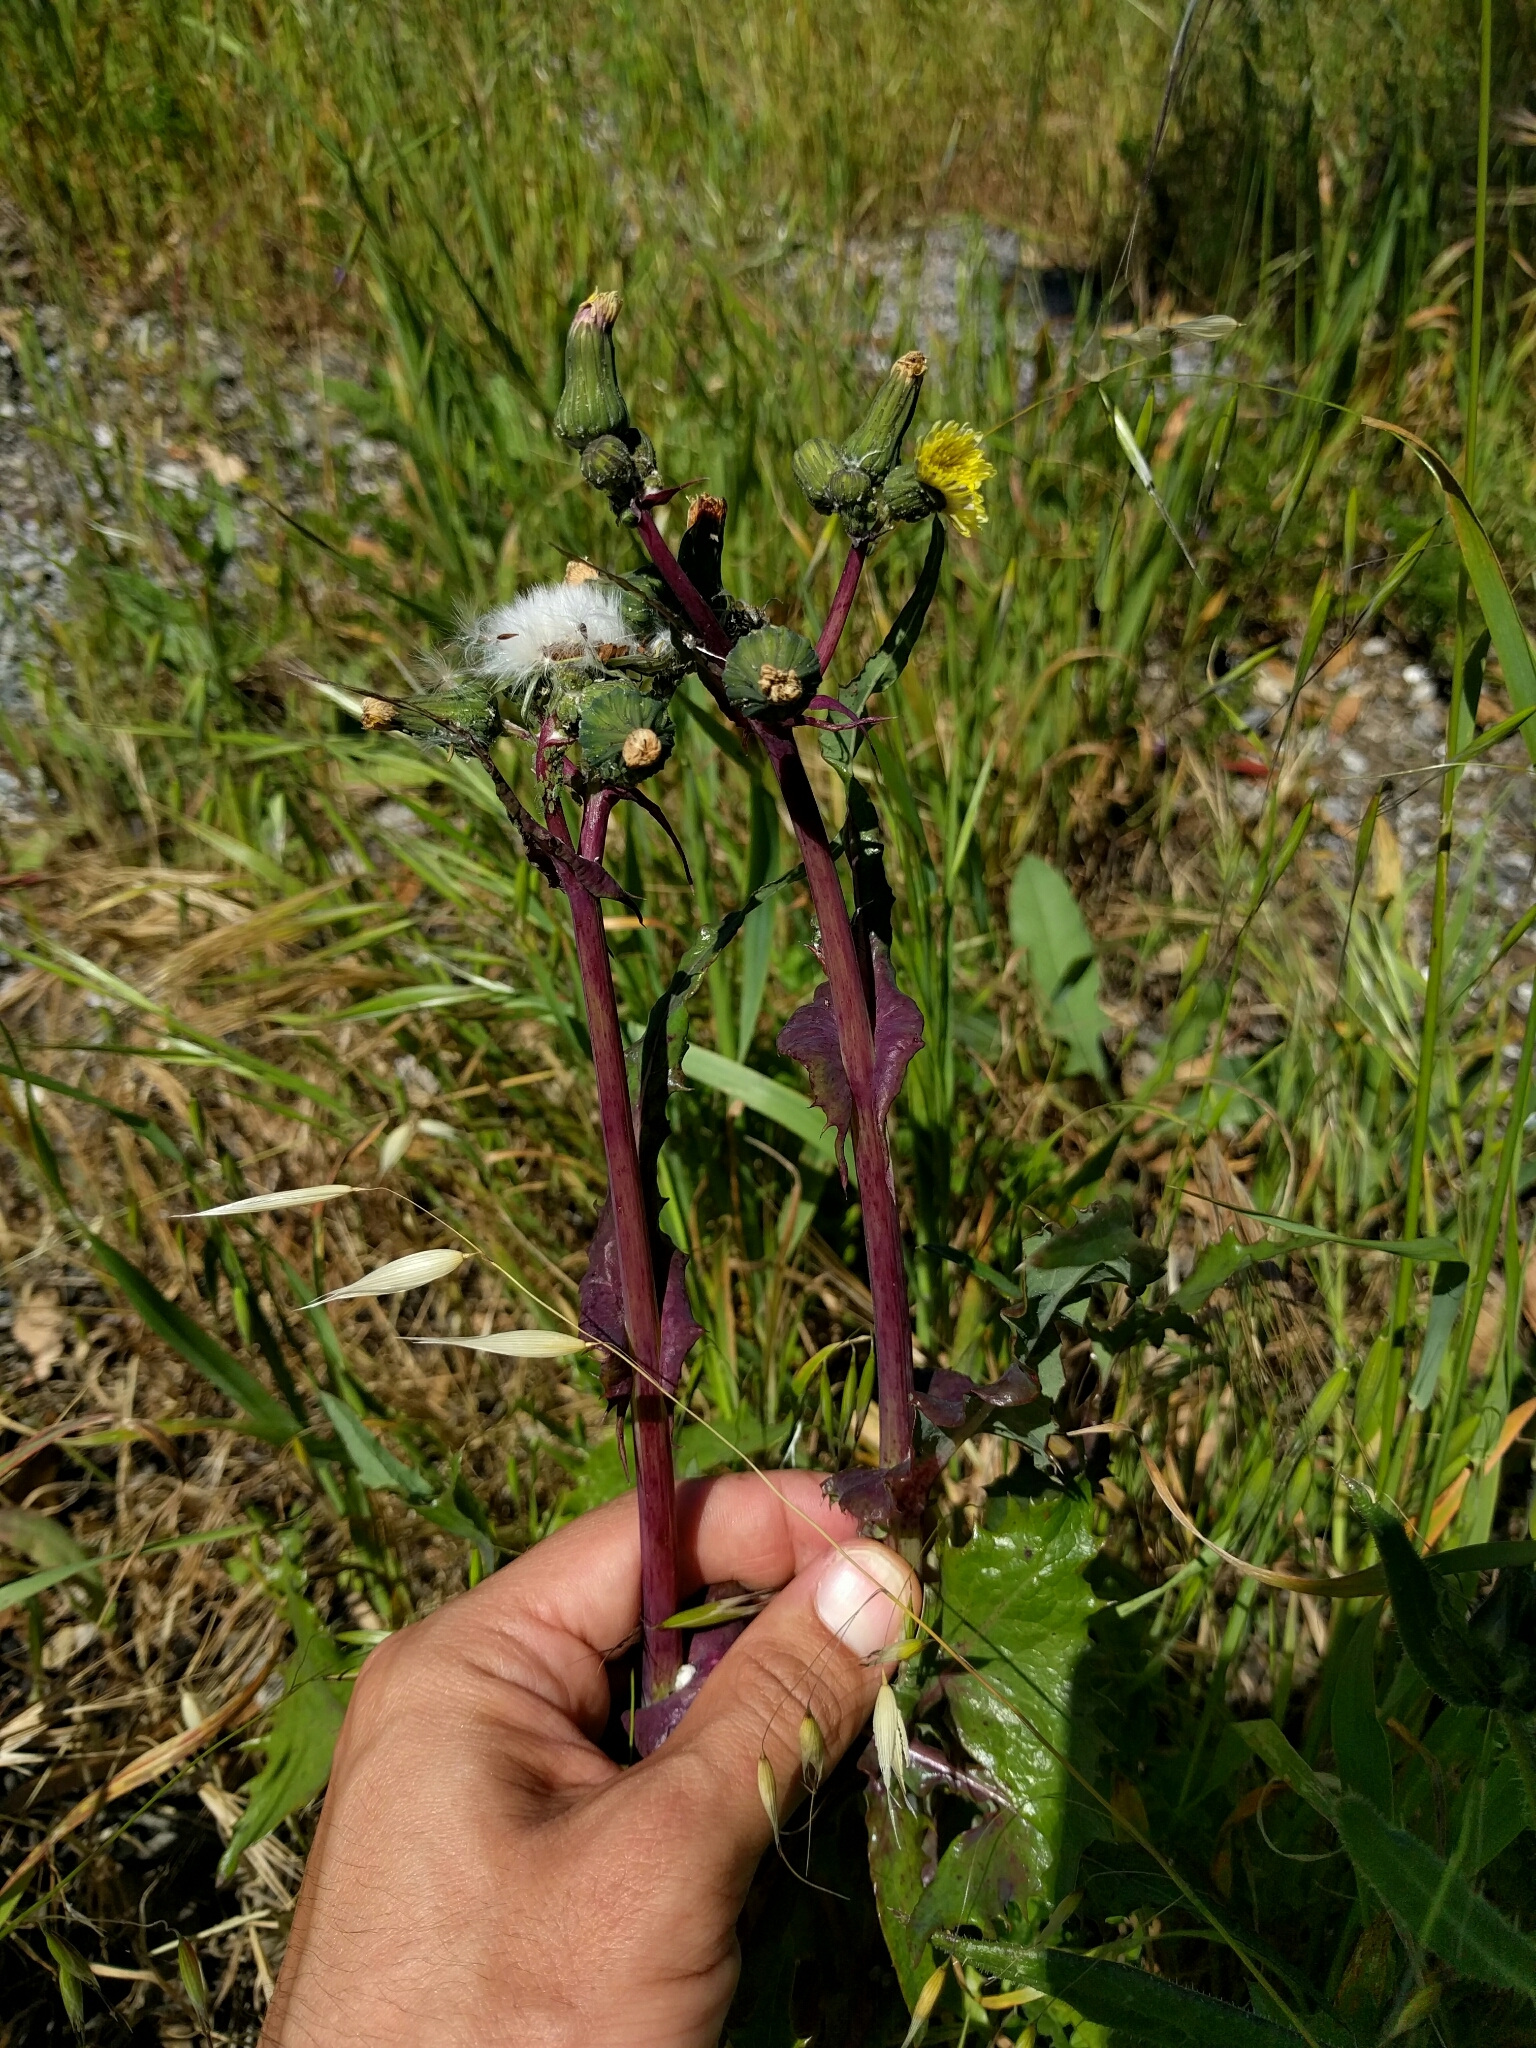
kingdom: Plantae
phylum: Tracheophyta
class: Magnoliopsida
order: Asterales
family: Asteraceae
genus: Sonchus
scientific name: Sonchus oleraceus
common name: Common sowthistle
